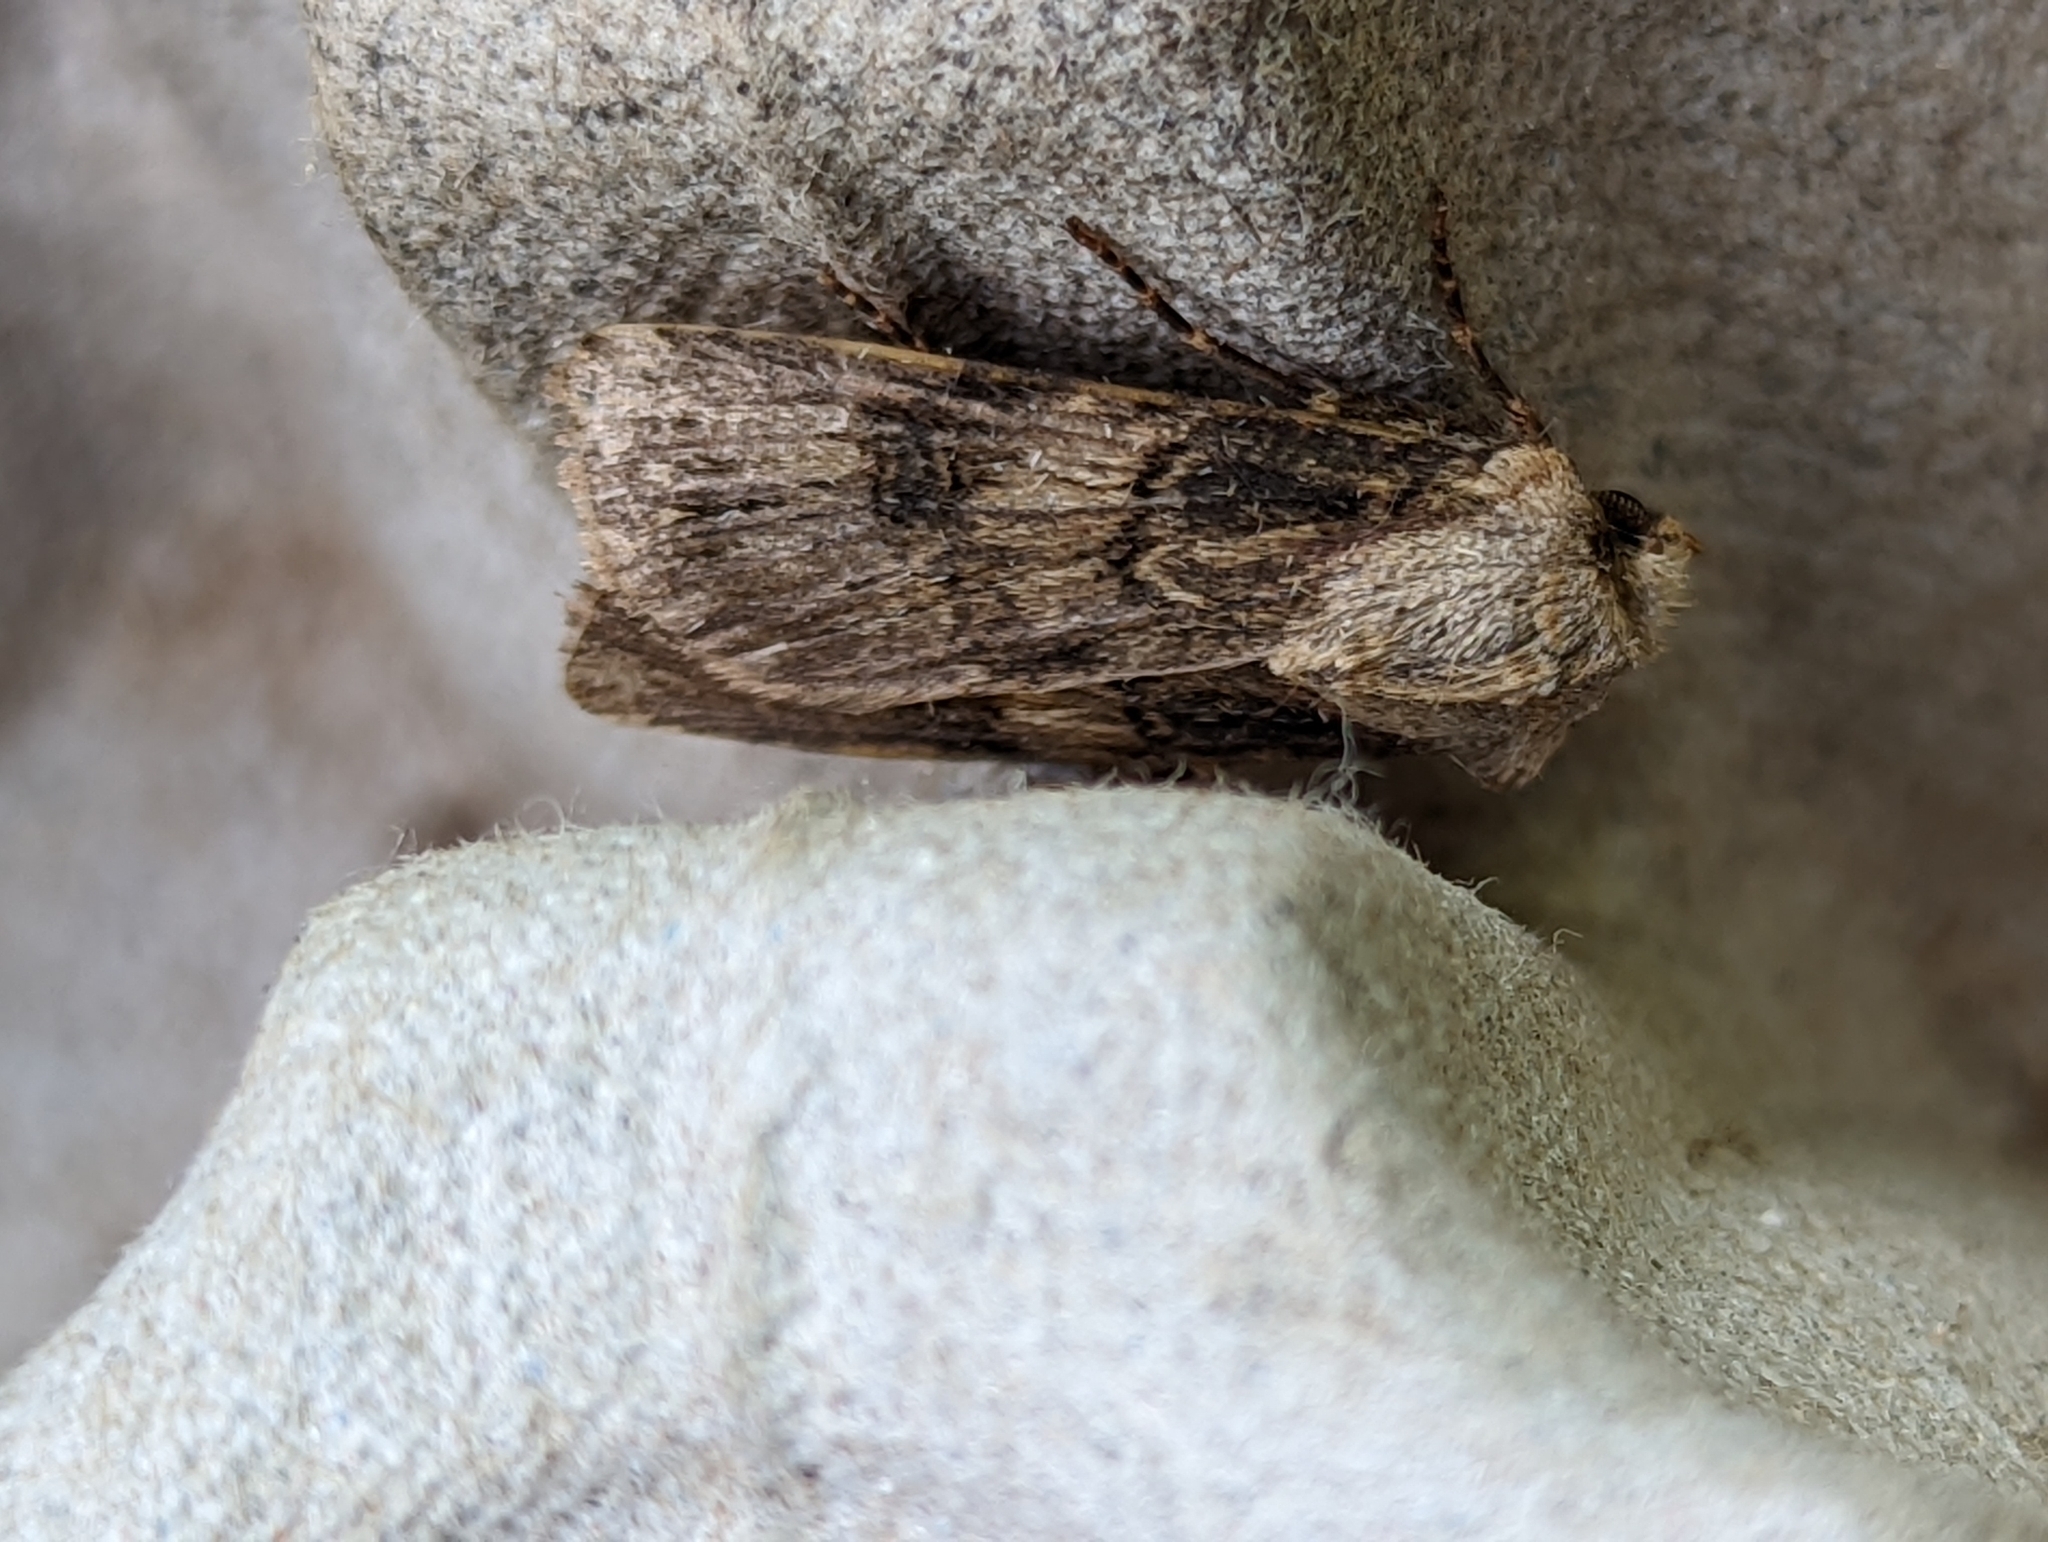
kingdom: Animalia
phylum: Arthropoda
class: Insecta
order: Lepidoptera
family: Noctuidae
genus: Agrotis
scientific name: Agrotis puta
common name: Shuttle-shaped dart
